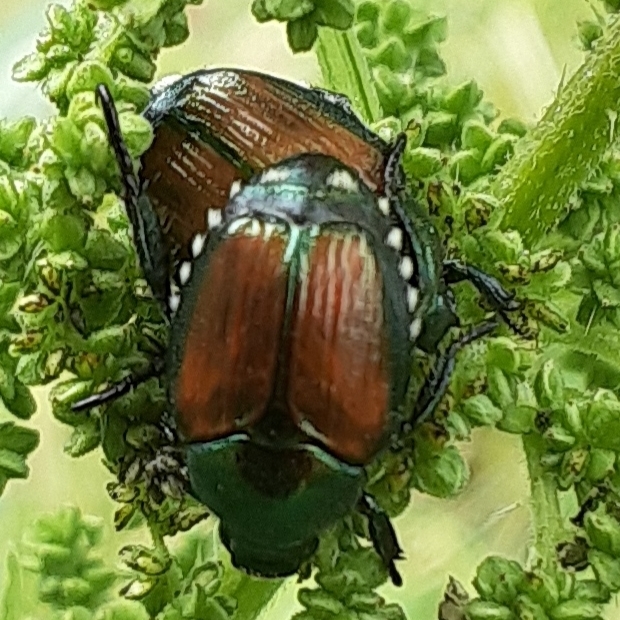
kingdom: Animalia
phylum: Arthropoda
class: Insecta
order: Coleoptera
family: Scarabaeidae
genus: Popillia
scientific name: Popillia japonica
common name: Japanese beetle
